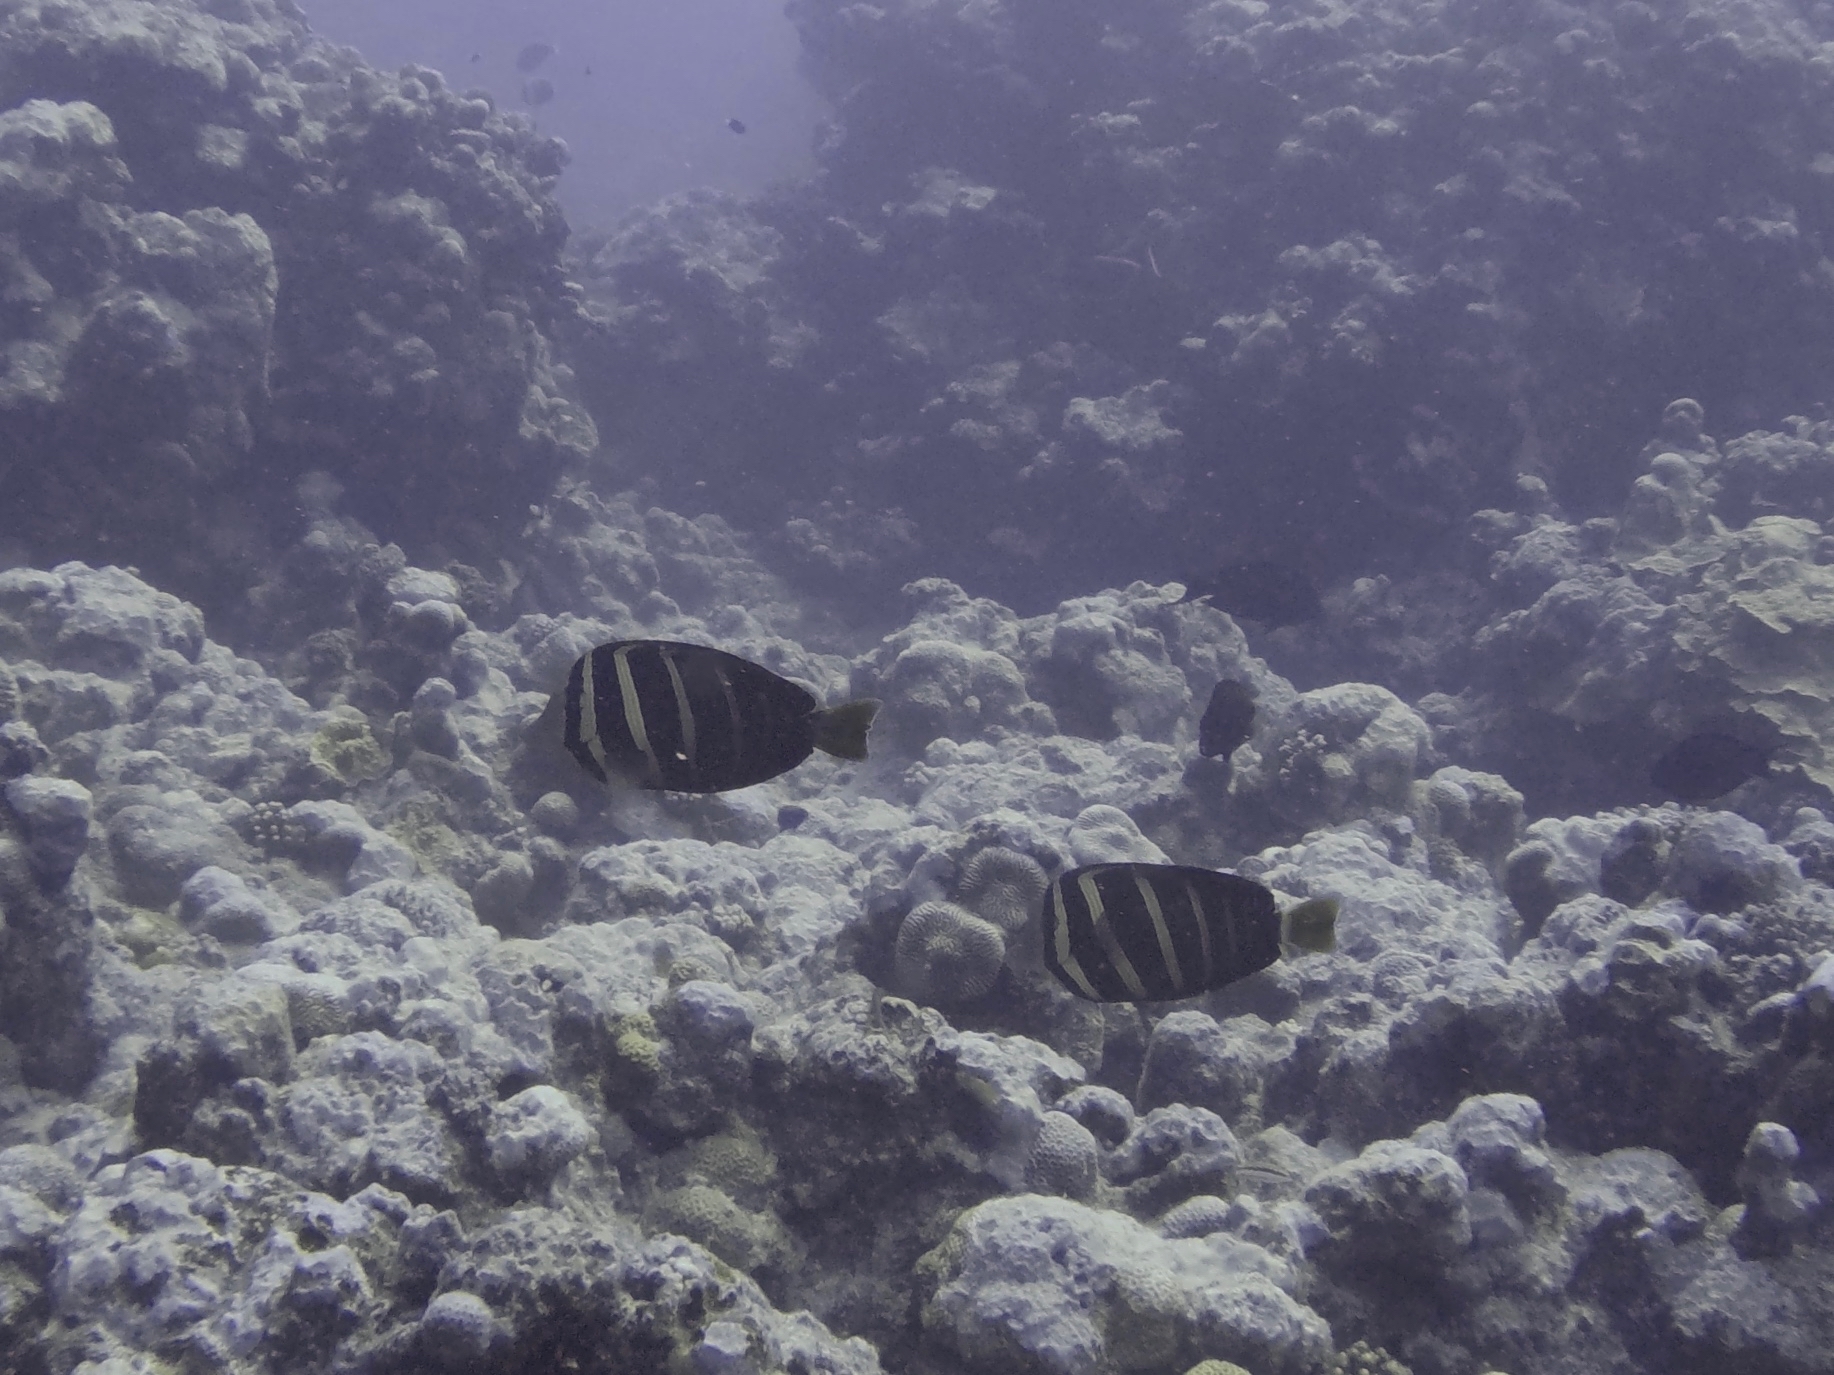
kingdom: Animalia
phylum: Chordata
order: Perciformes
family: Acanthuridae
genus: Zebrasoma
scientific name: Zebrasoma veliferum
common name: Sailfin surgeonfish
